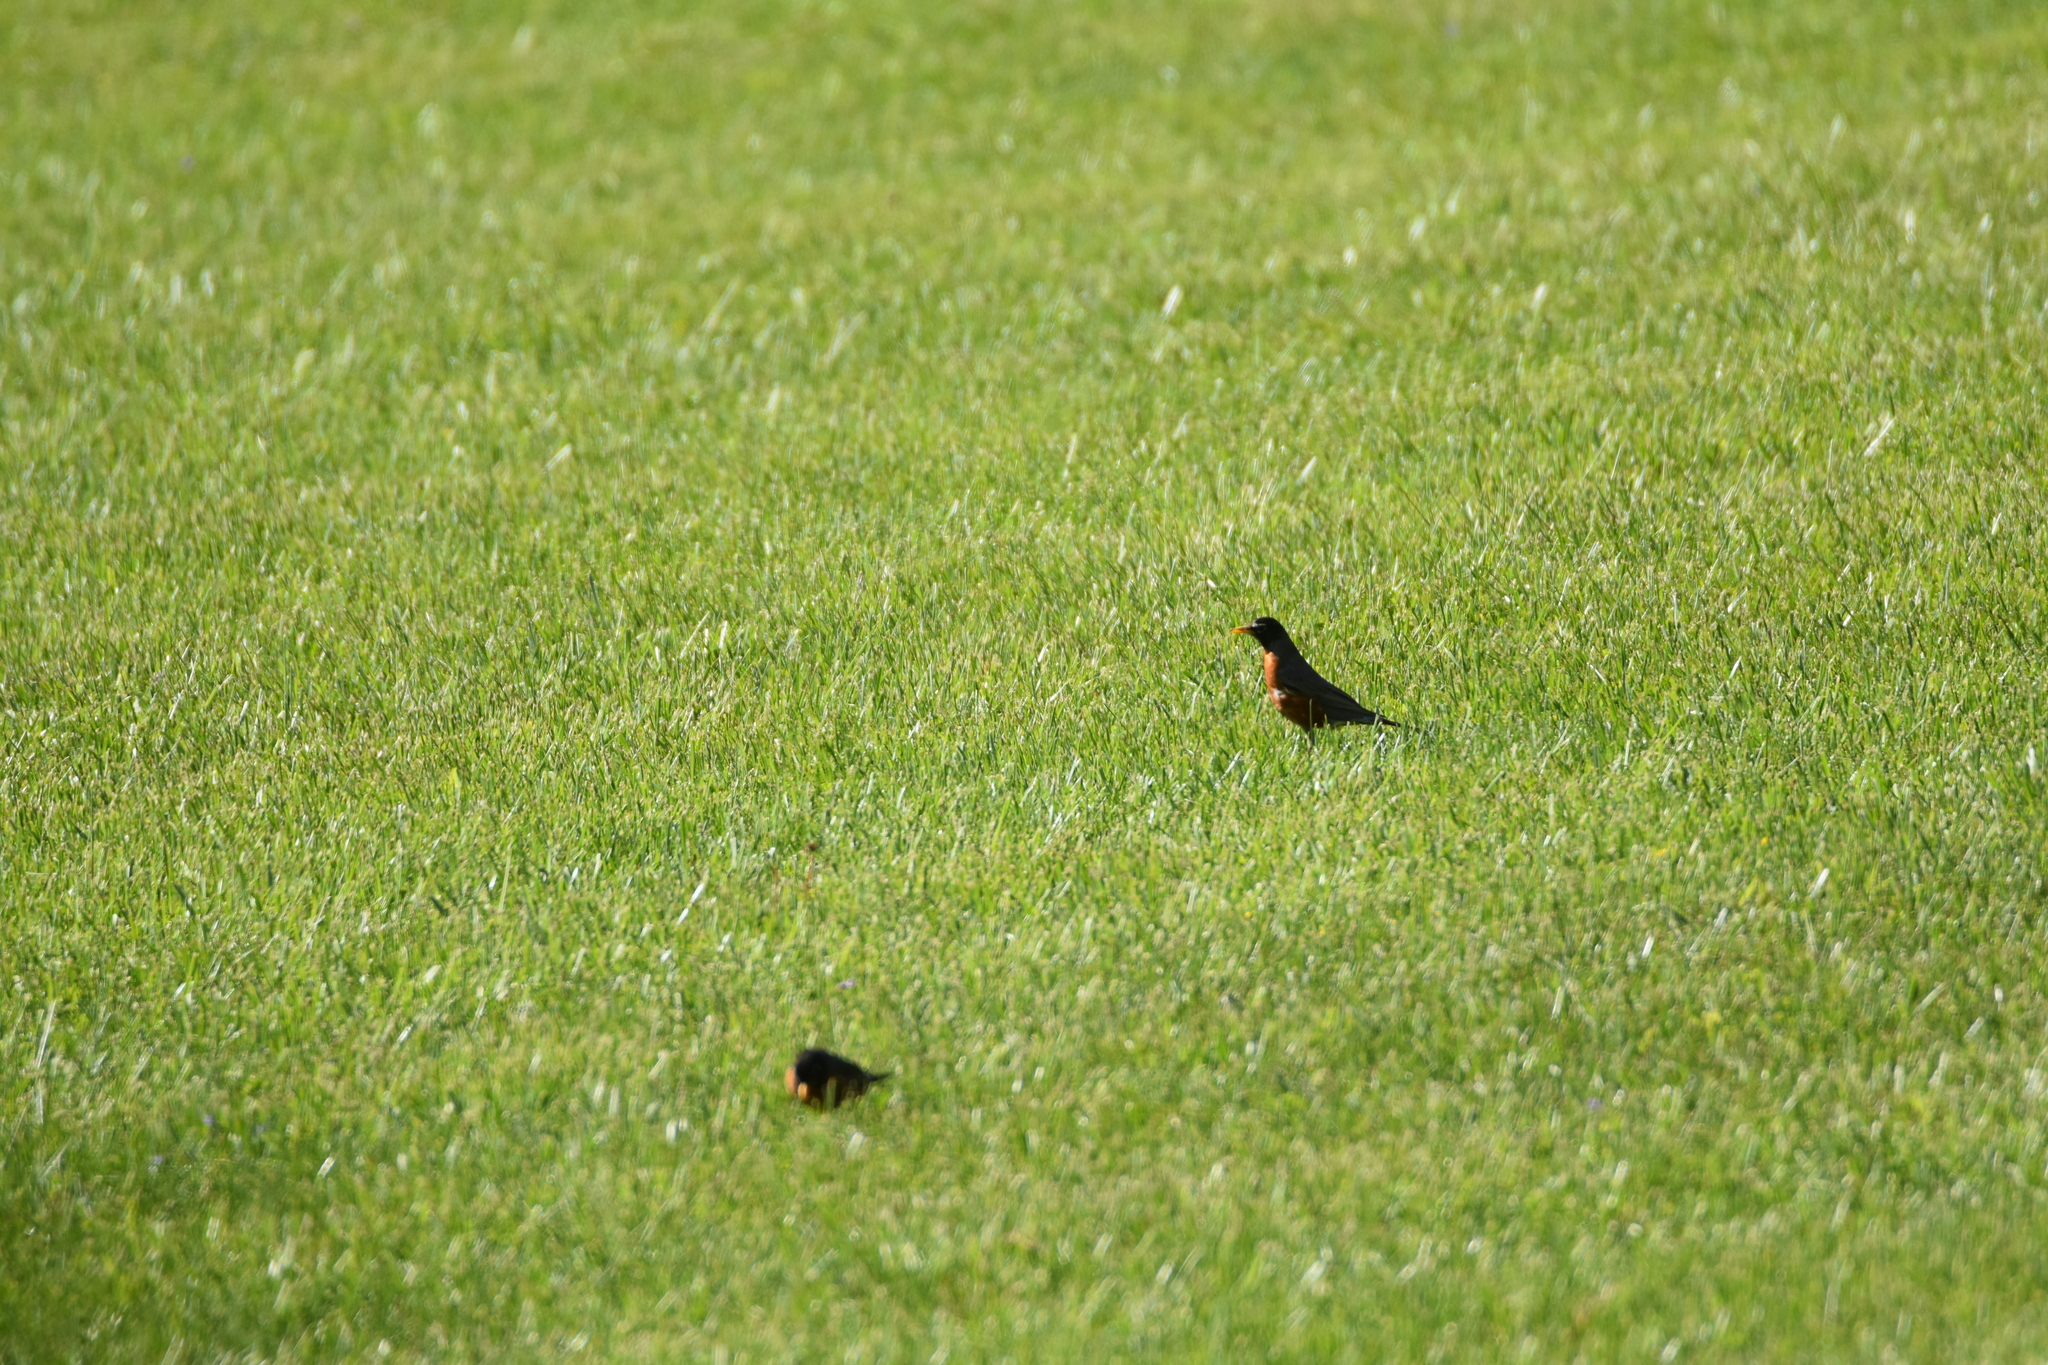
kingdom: Animalia
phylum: Chordata
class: Aves
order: Passeriformes
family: Turdidae
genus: Turdus
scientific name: Turdus migratorius
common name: American robin
